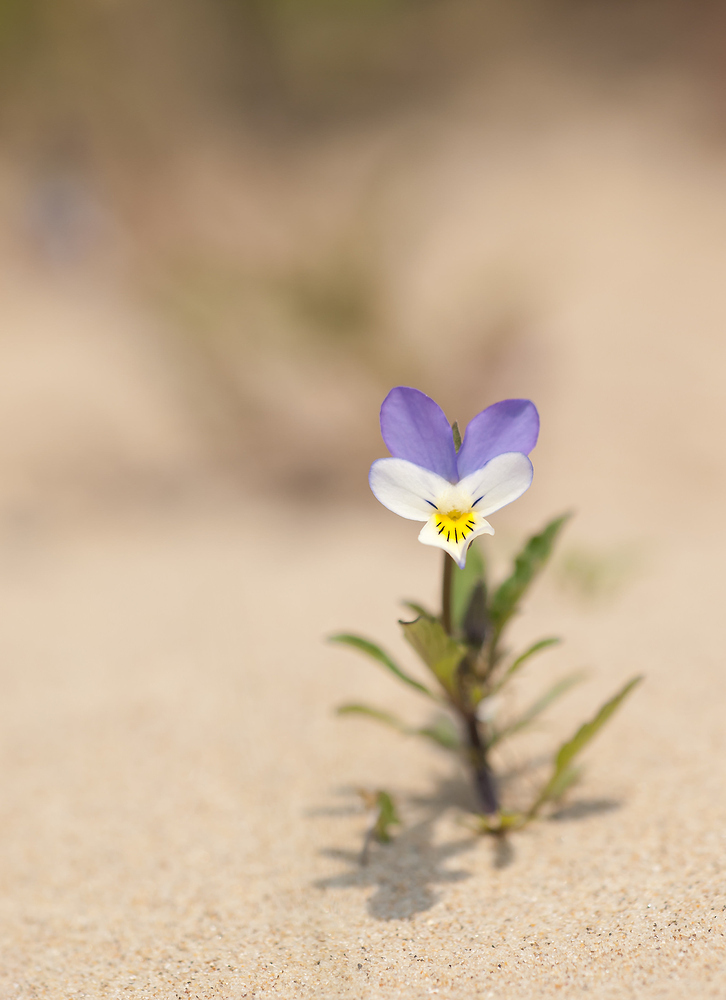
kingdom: Plantae
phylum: Tracheophyta
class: Magnoliopsida
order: Malpighiales
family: Violaceae
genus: Viola
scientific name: Viola tricolor
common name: Pansy
